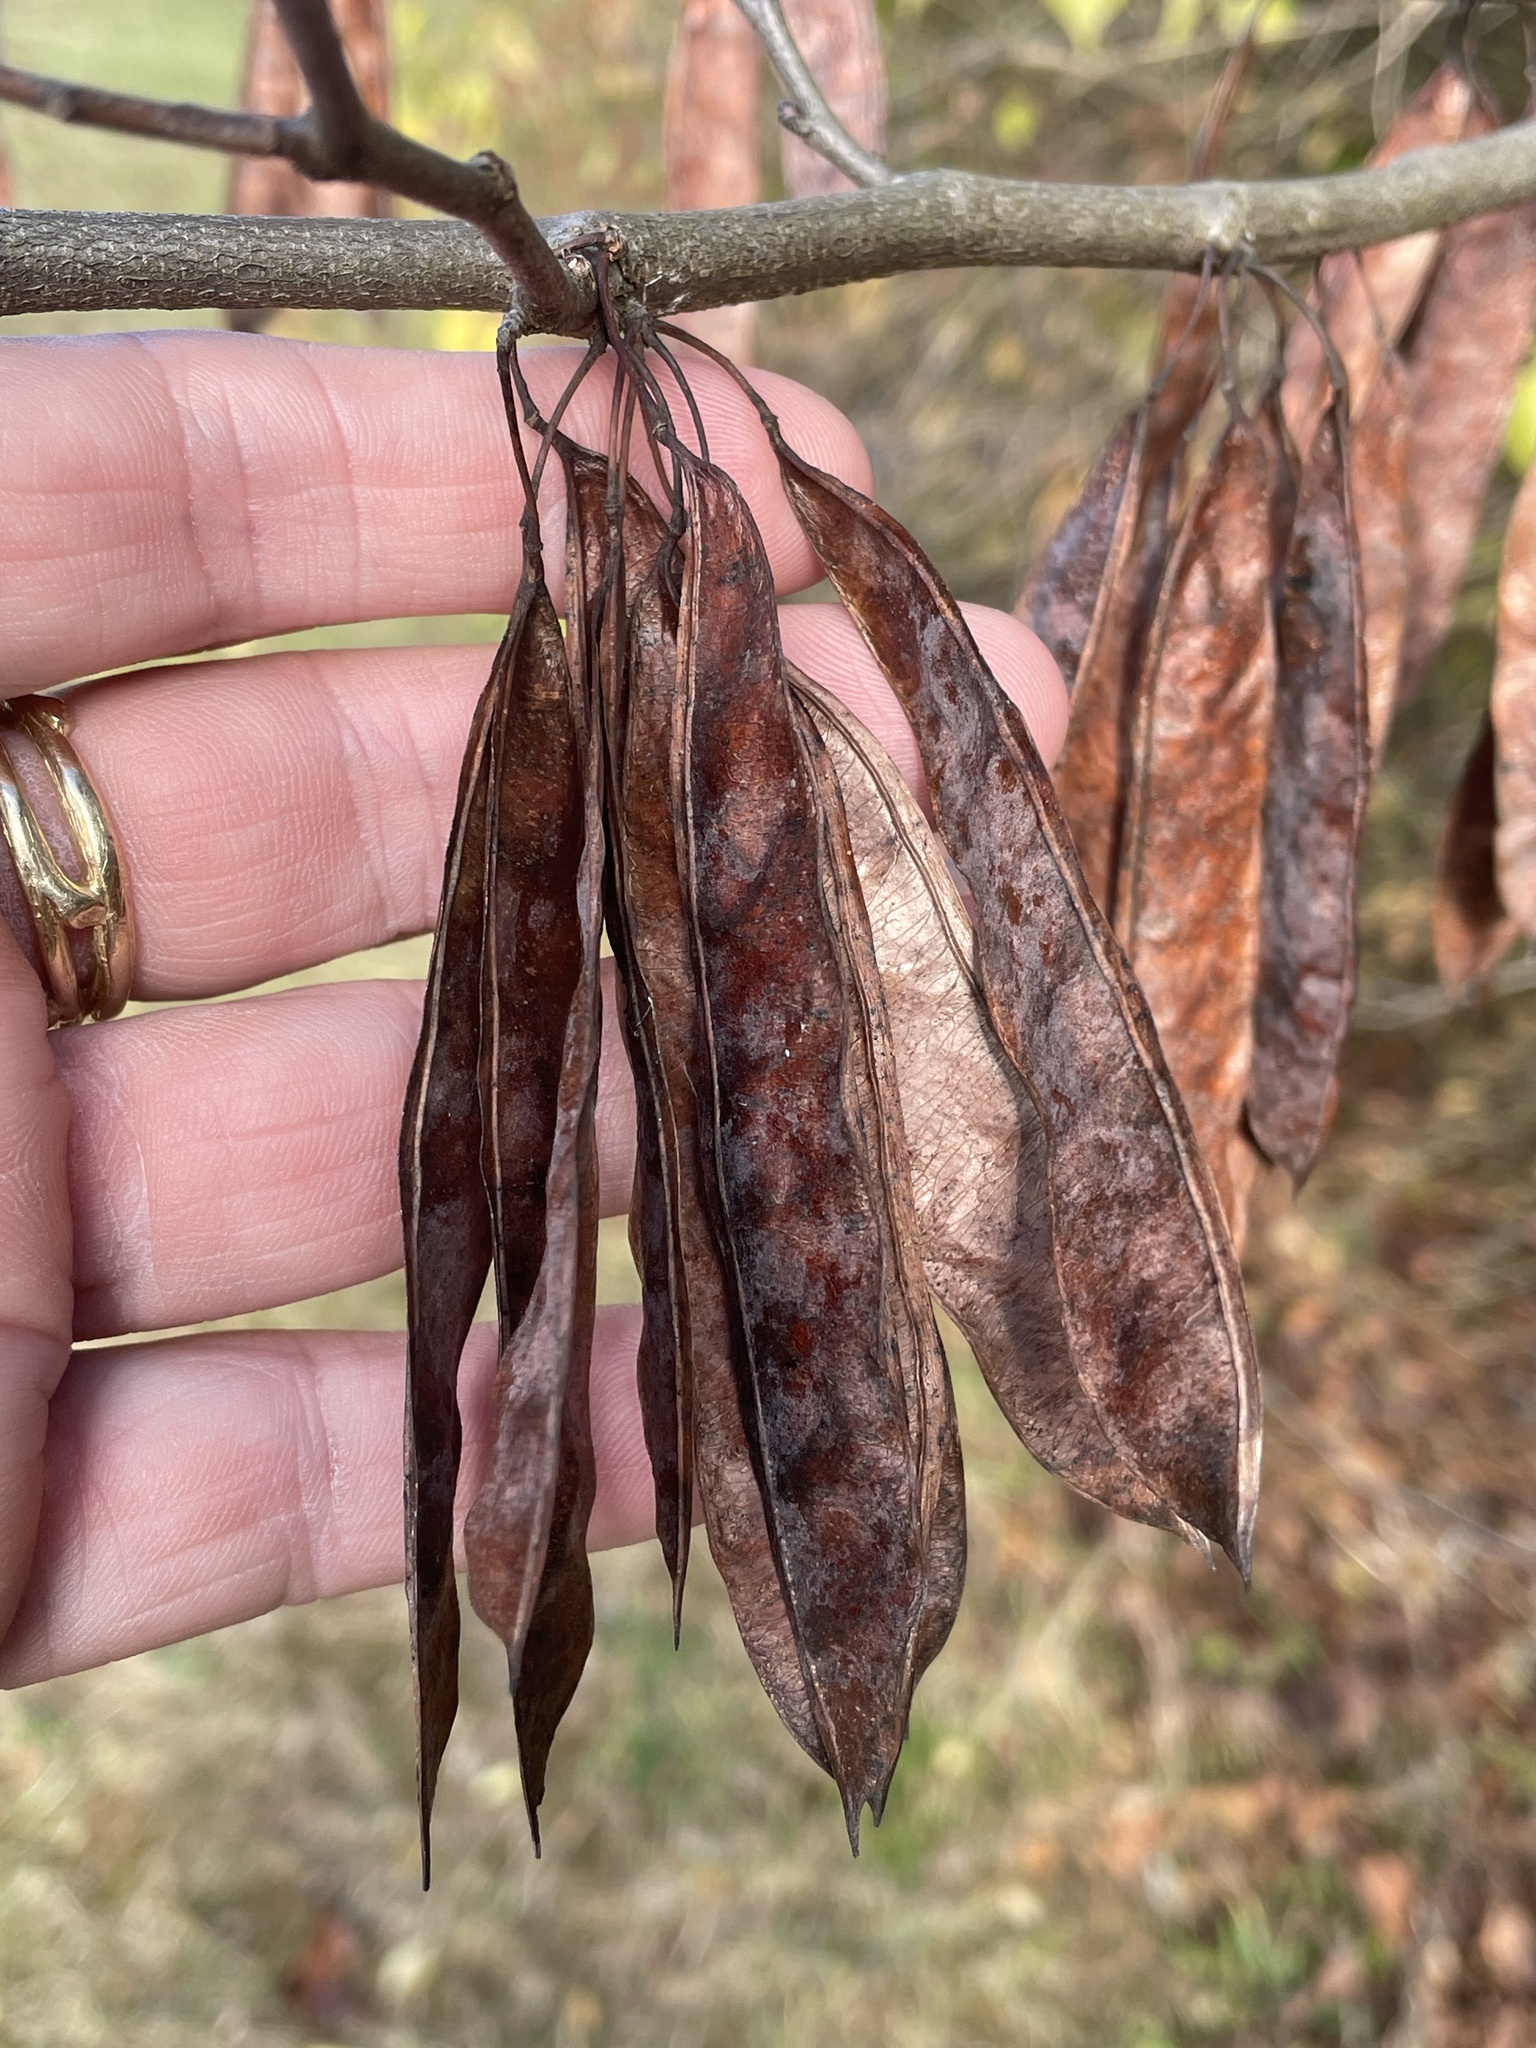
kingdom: Plantae
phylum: Tracheophyta
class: Magnoliopsida
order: Fabales
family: Fabaceae
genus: Cercis
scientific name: Cercis canadensis
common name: Eastern redbud
